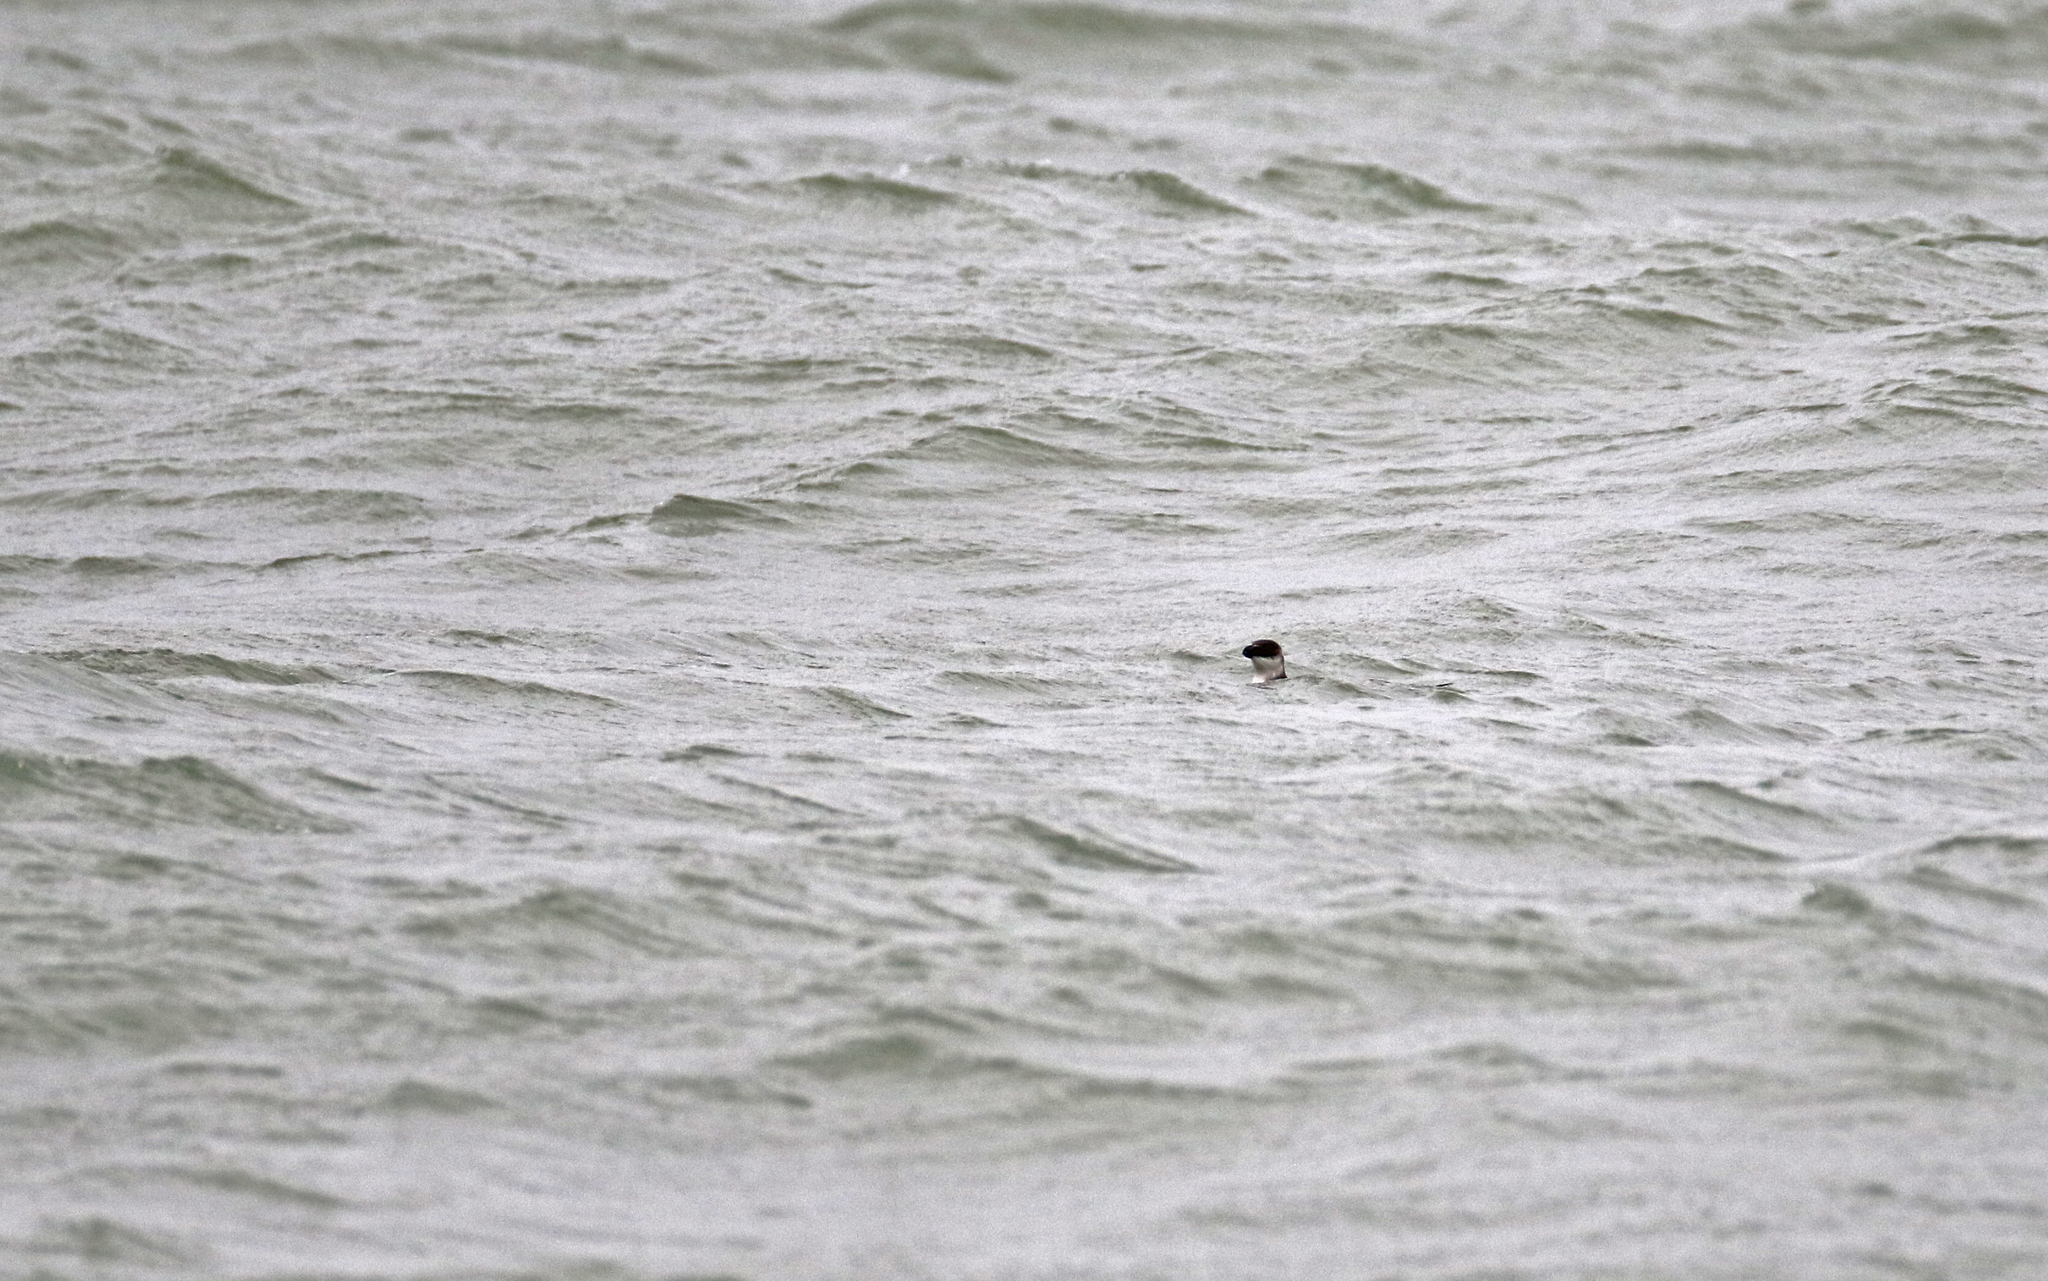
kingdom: Animalia
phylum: Chordata
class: Aves
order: Charadriiformes
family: Alcidae
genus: Alca
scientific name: Alca torda
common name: Razorbill
